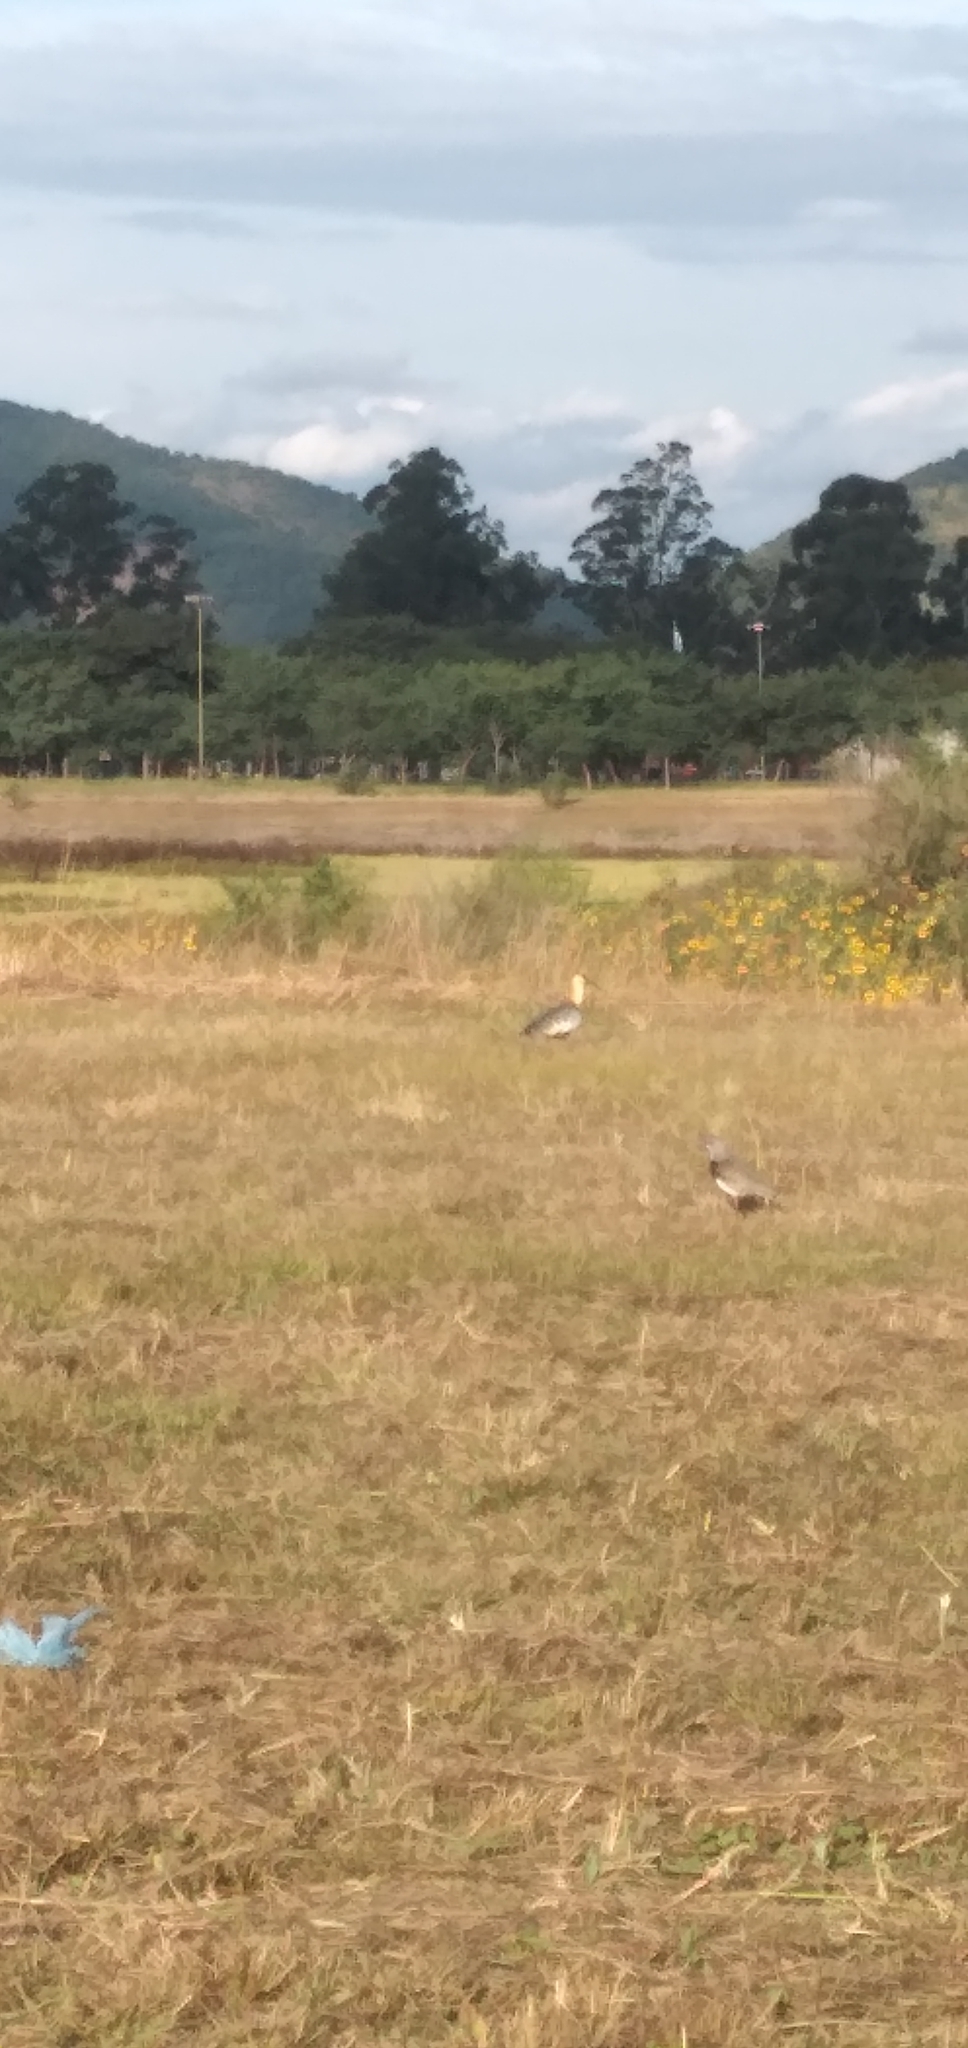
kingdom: Animalia
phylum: Chordata
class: Aves
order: Pelecaniformes
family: Threskiornithidae
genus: Theristicus
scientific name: Theristicus caudatus
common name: Buff-necked ibis
